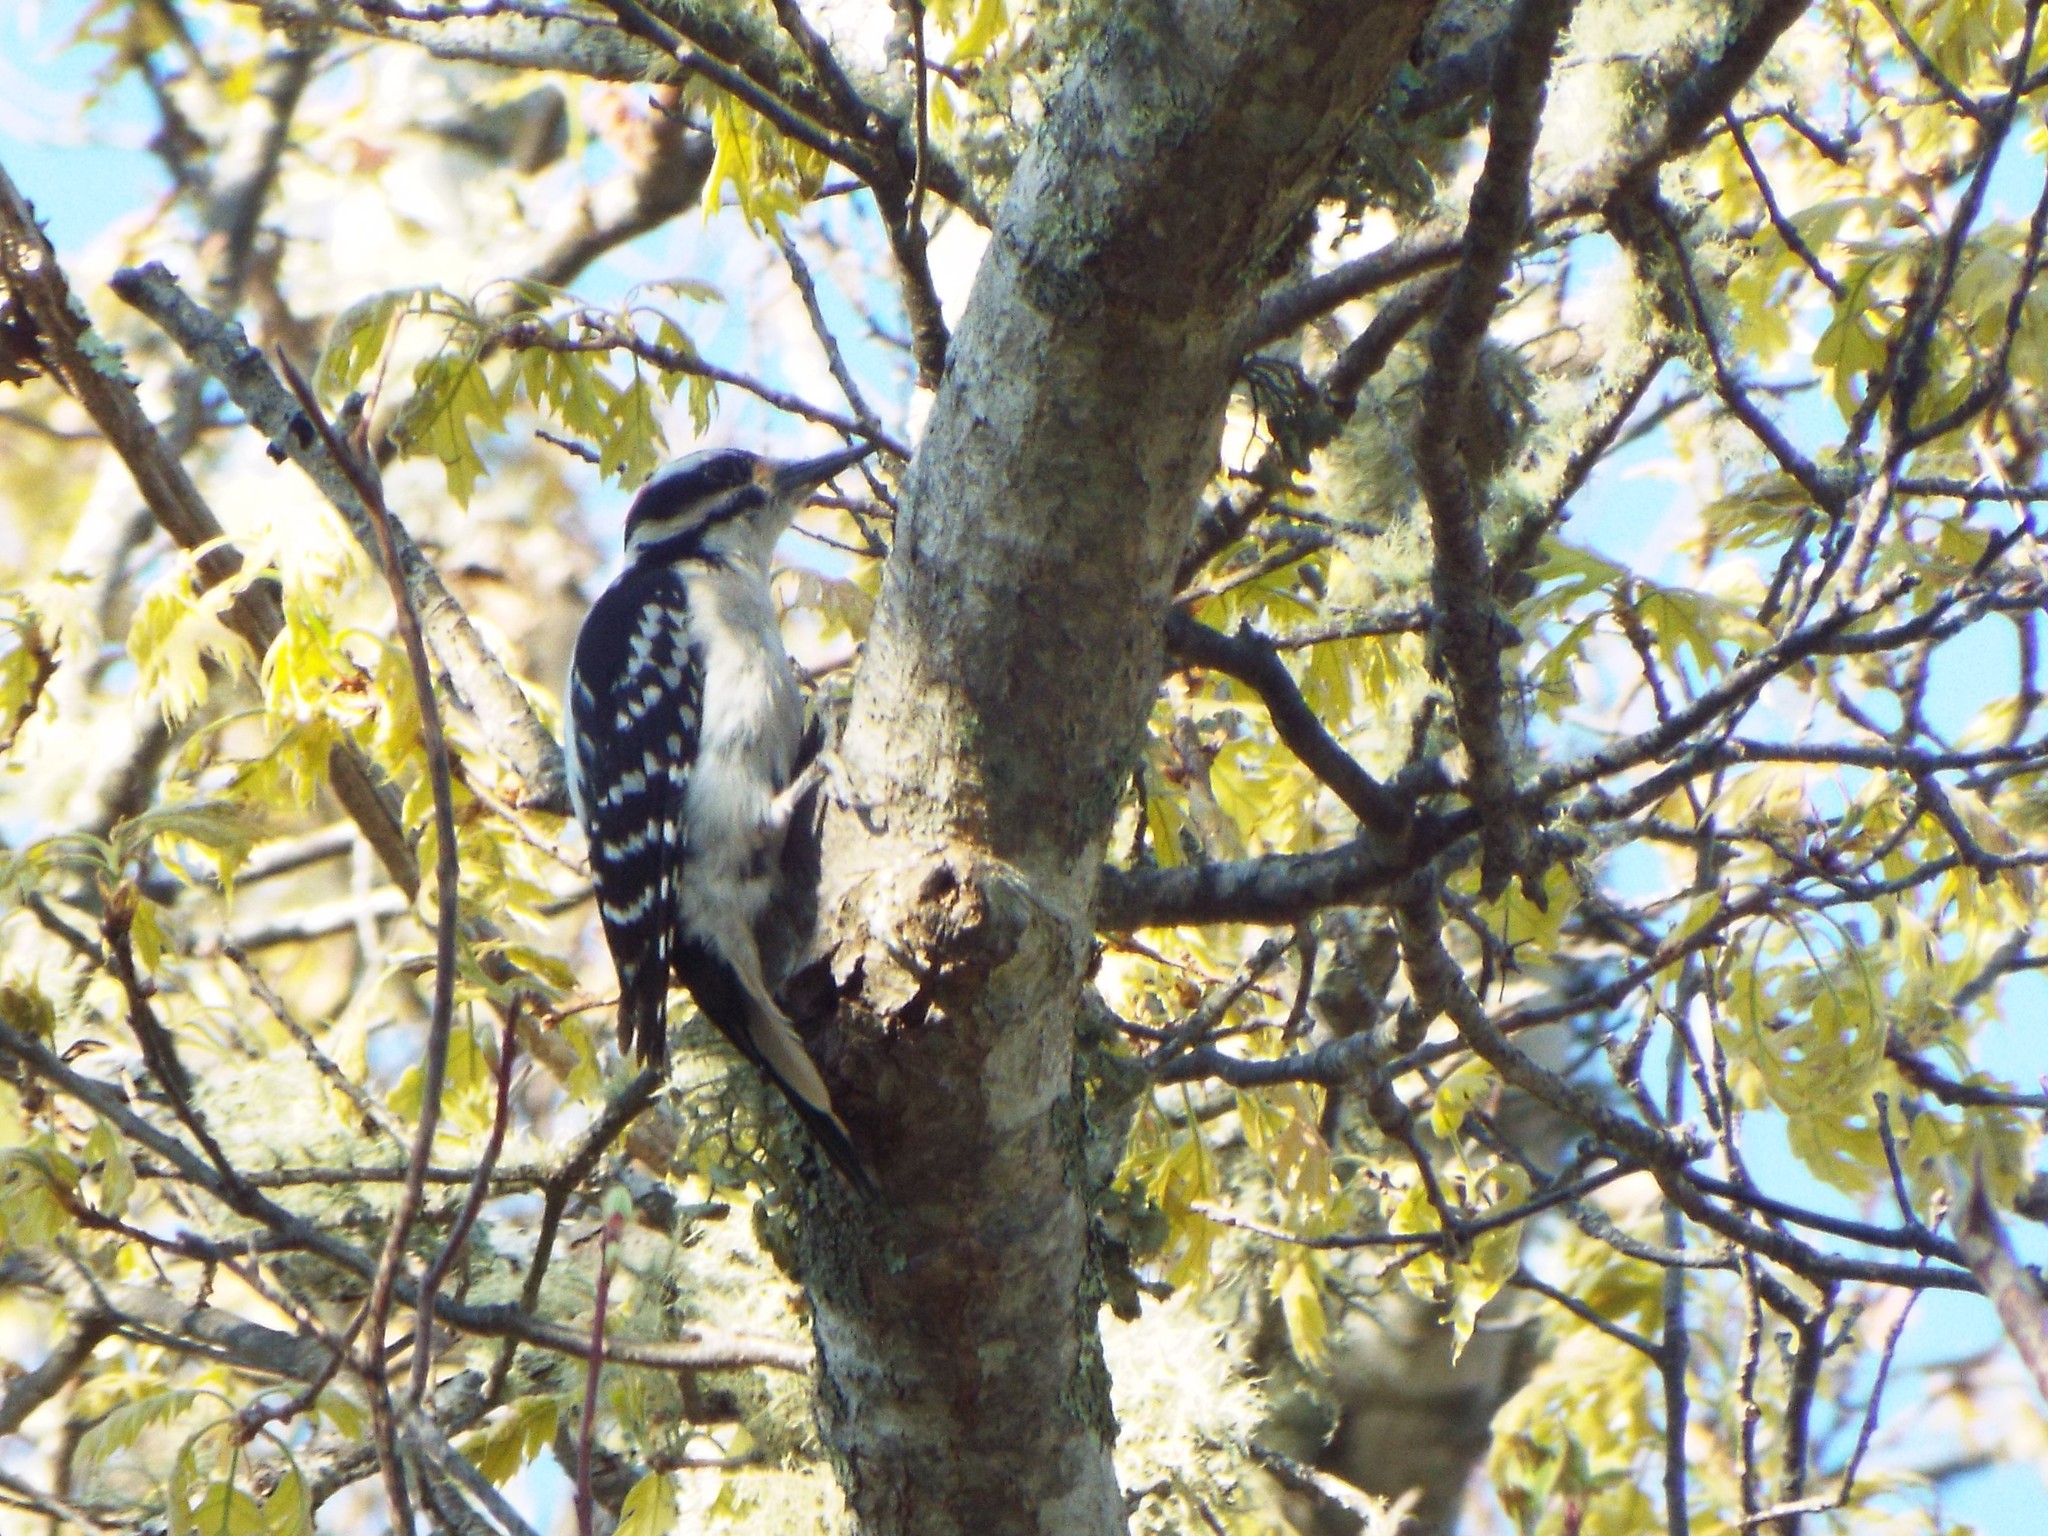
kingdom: Animalia
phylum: Chordata
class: Aves
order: Piciformes
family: Picidae
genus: Leuconotopicus
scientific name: Leuconotopicus villosus
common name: Hairy woodpecker
